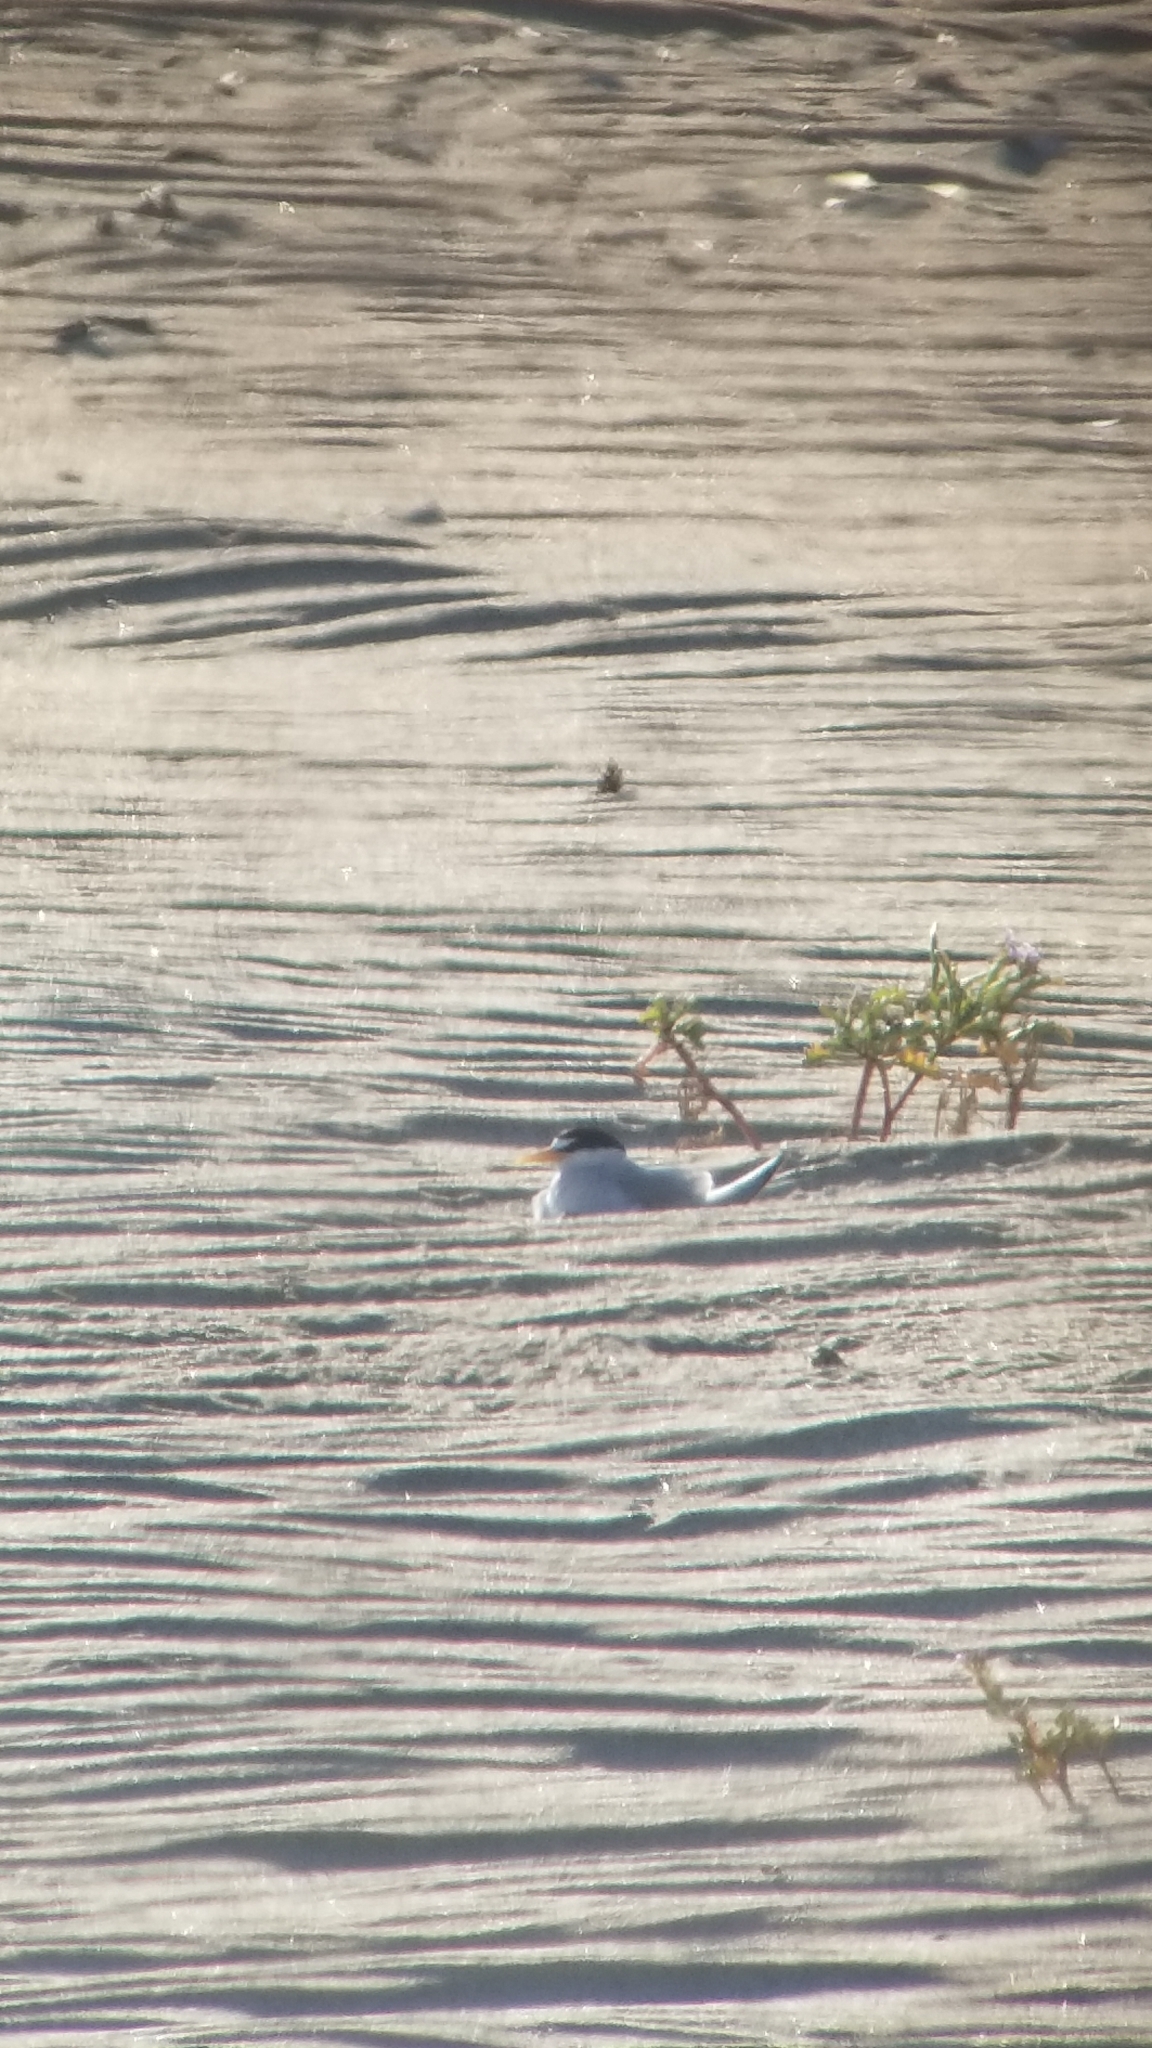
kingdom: Animalia
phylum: Chordata
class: Aves
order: Charadriiformes
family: Laridae
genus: Sternula
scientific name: Sternula antillarum
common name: Least tern
